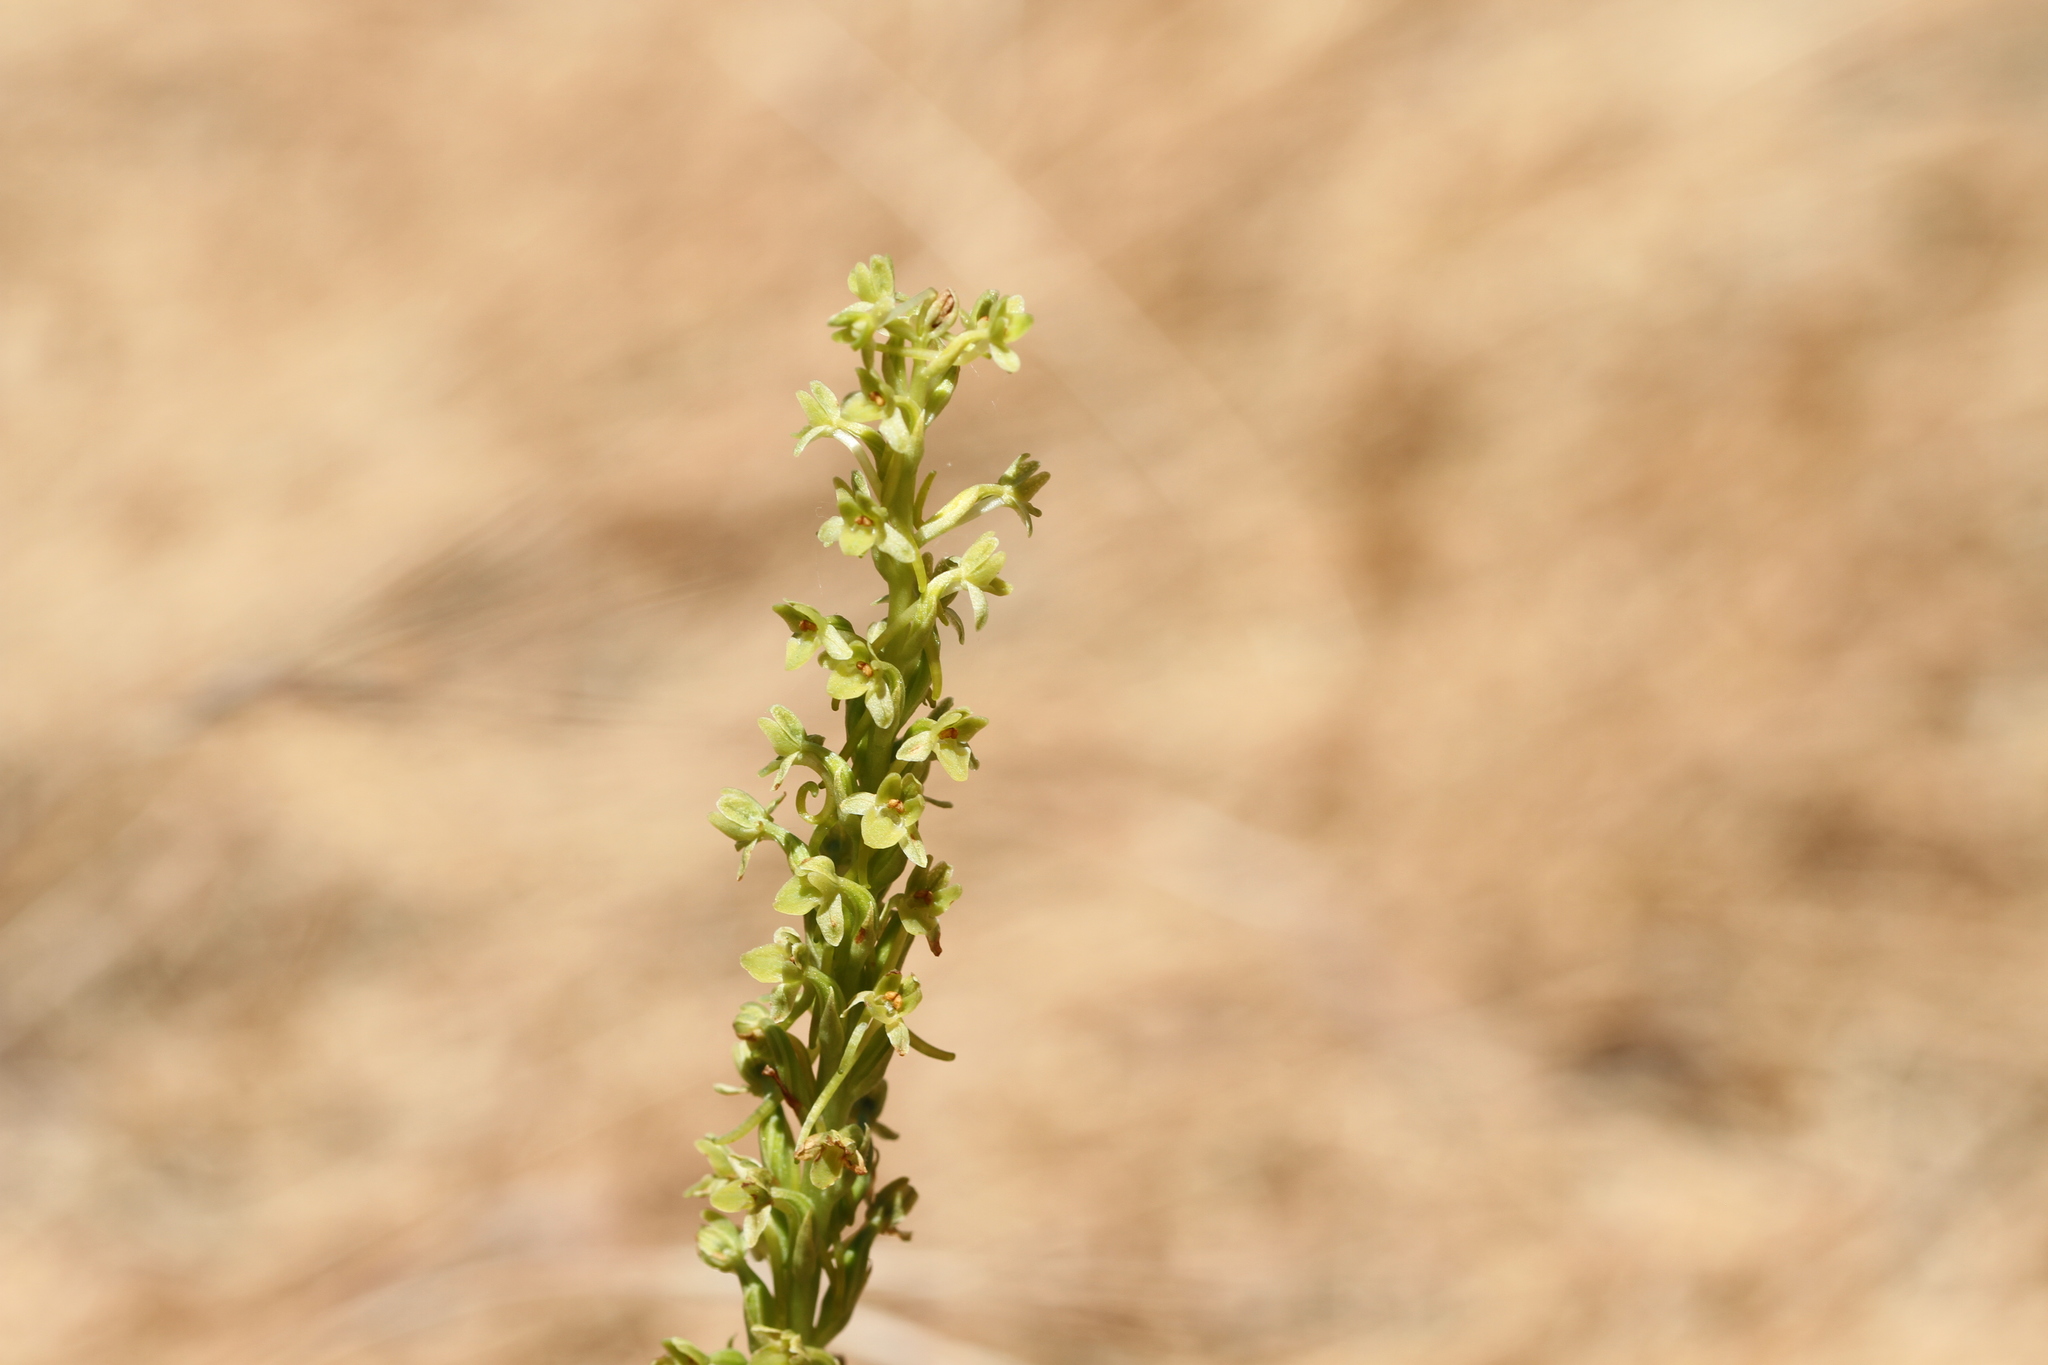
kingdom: Plantae
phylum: Tracheophyta
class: Liliopsida
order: Asparagales
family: Orchidaceae
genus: Platanthera
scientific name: Platanthera michaelii
